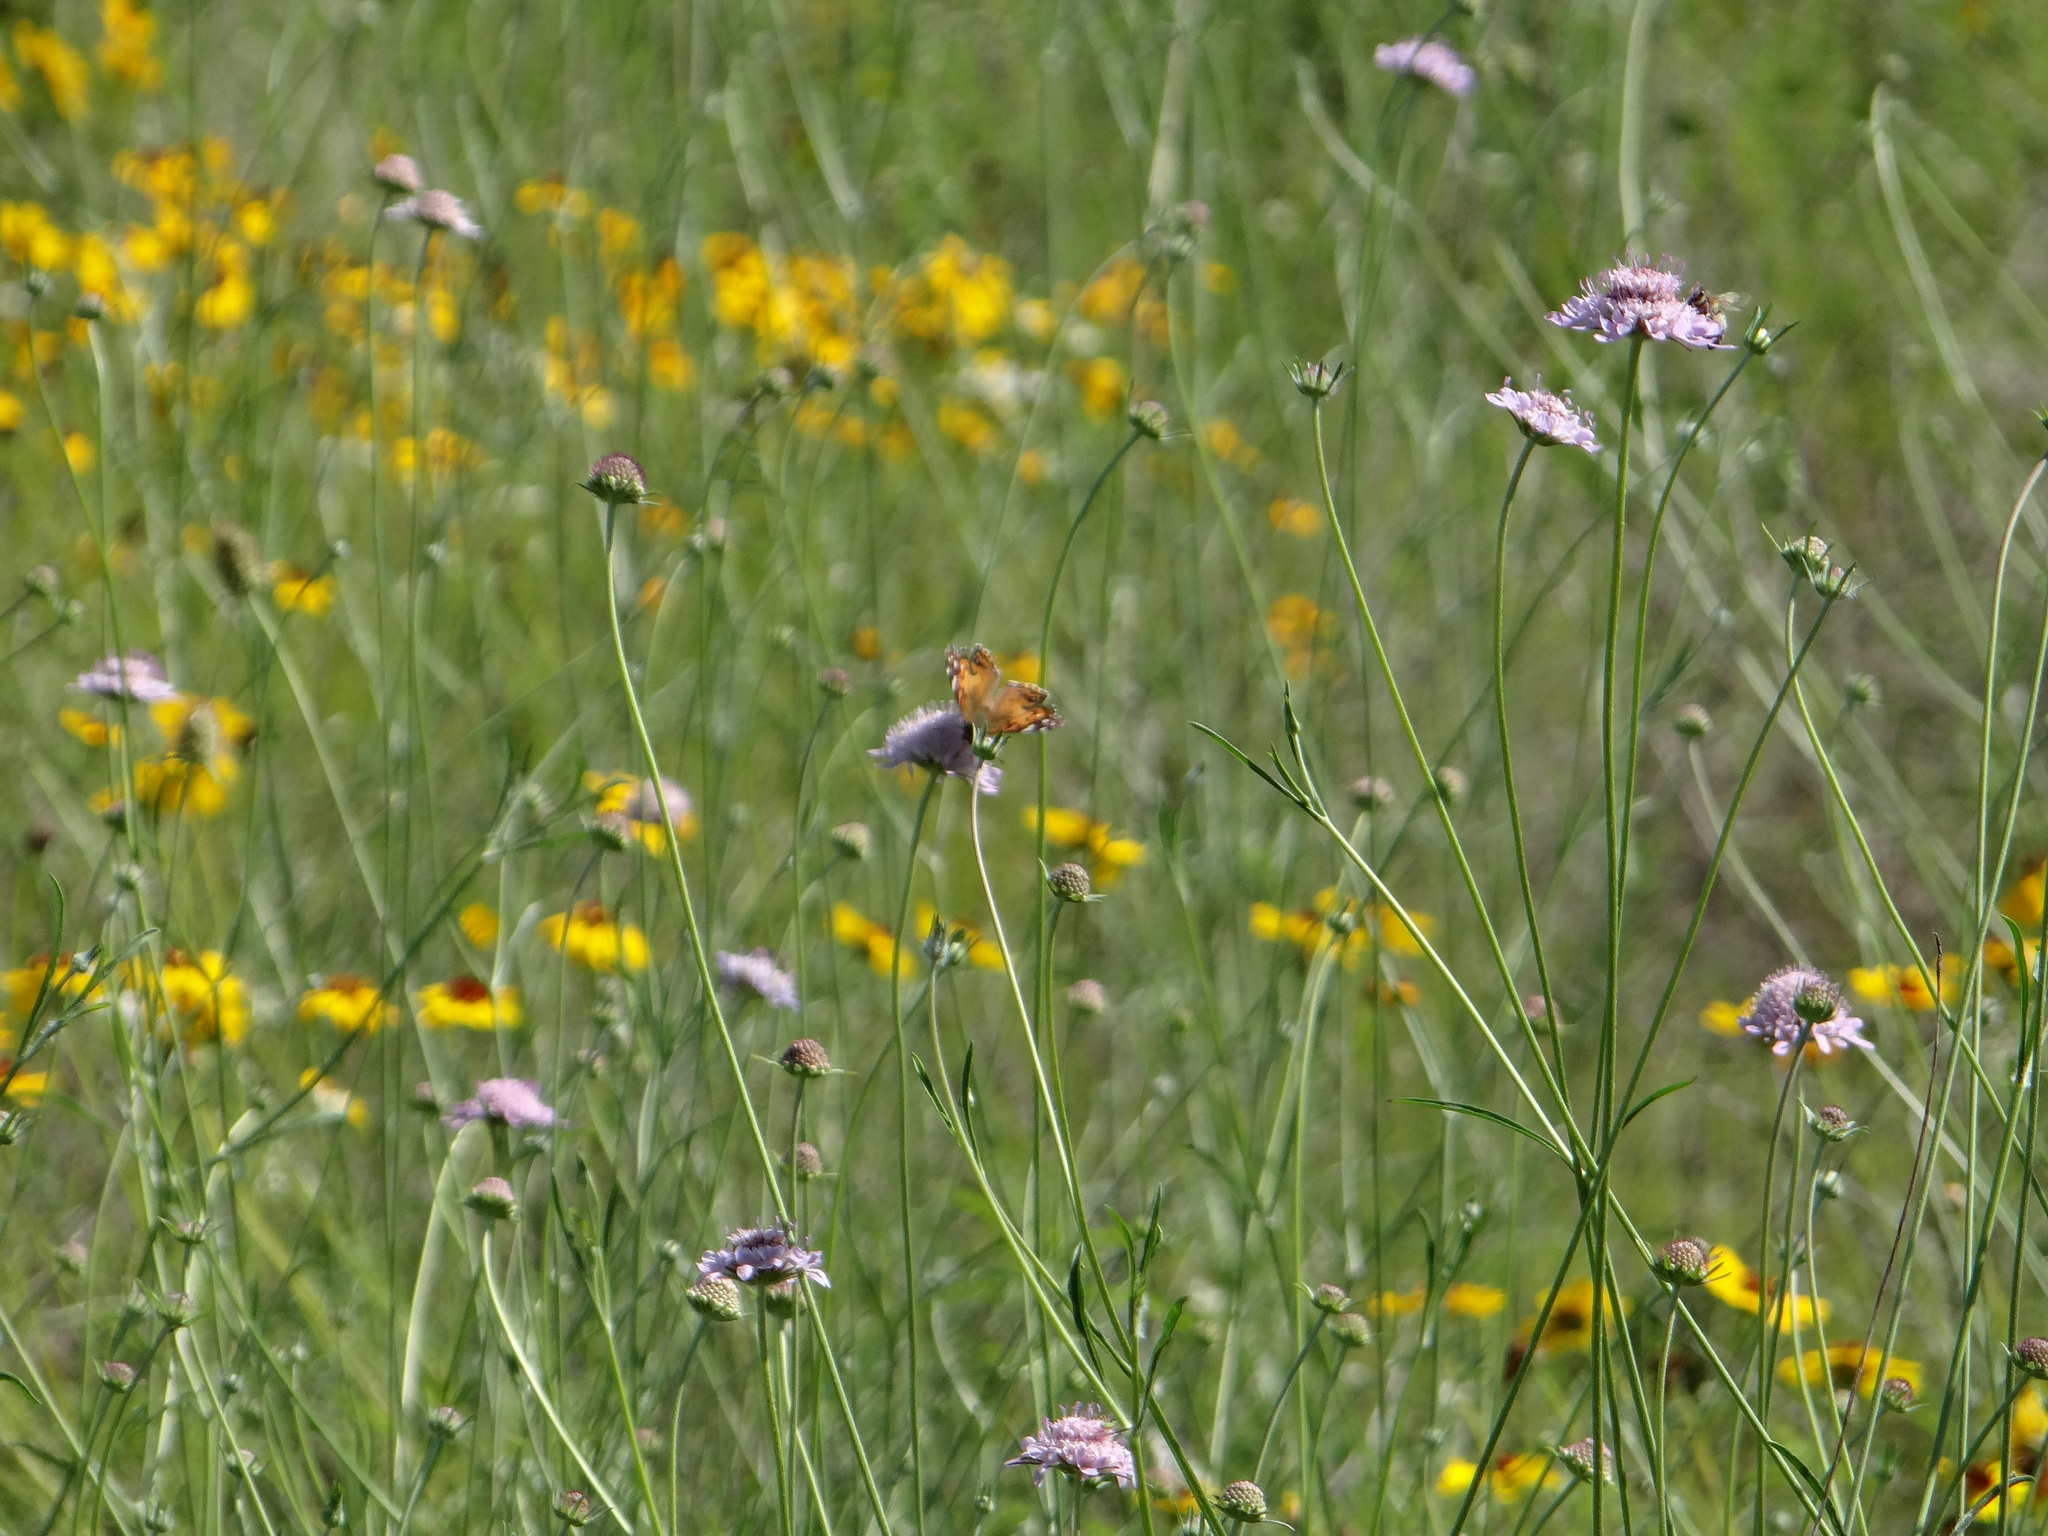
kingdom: Animalia
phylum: Arthropoda
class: Insecta
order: Lepidoptera
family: Nymphalidae
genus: Vanessa
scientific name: Vanessa virginiensis
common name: American lady
